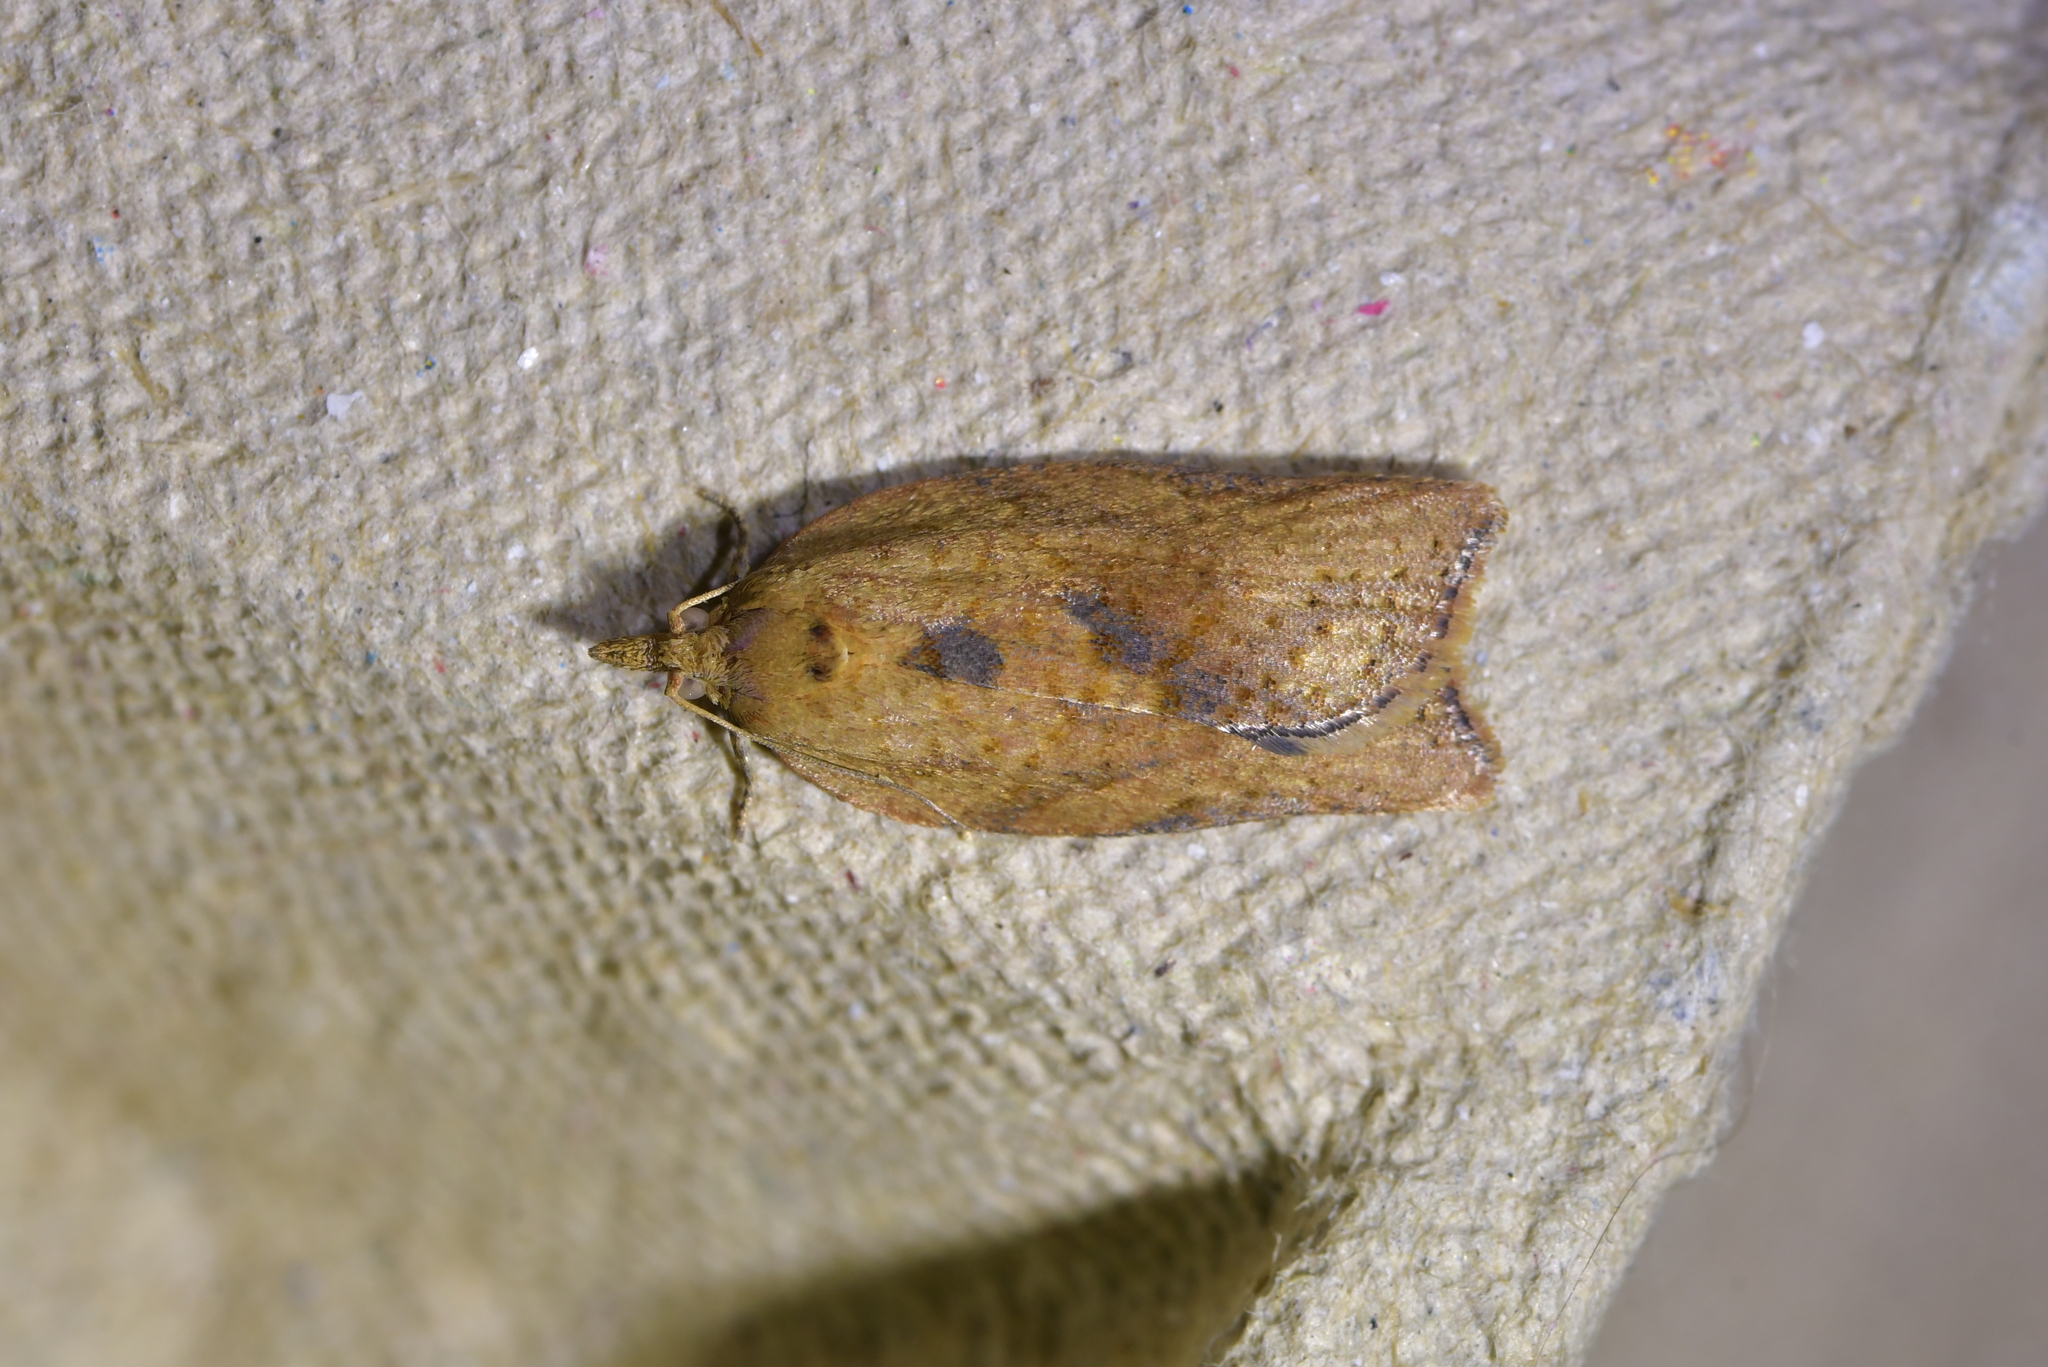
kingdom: Animalia
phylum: Arthropoda
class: Insecta
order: Lepidoptera
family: Tortricidae
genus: Epiphyas
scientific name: Epiphyas postvittana
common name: Light brown apple moth
